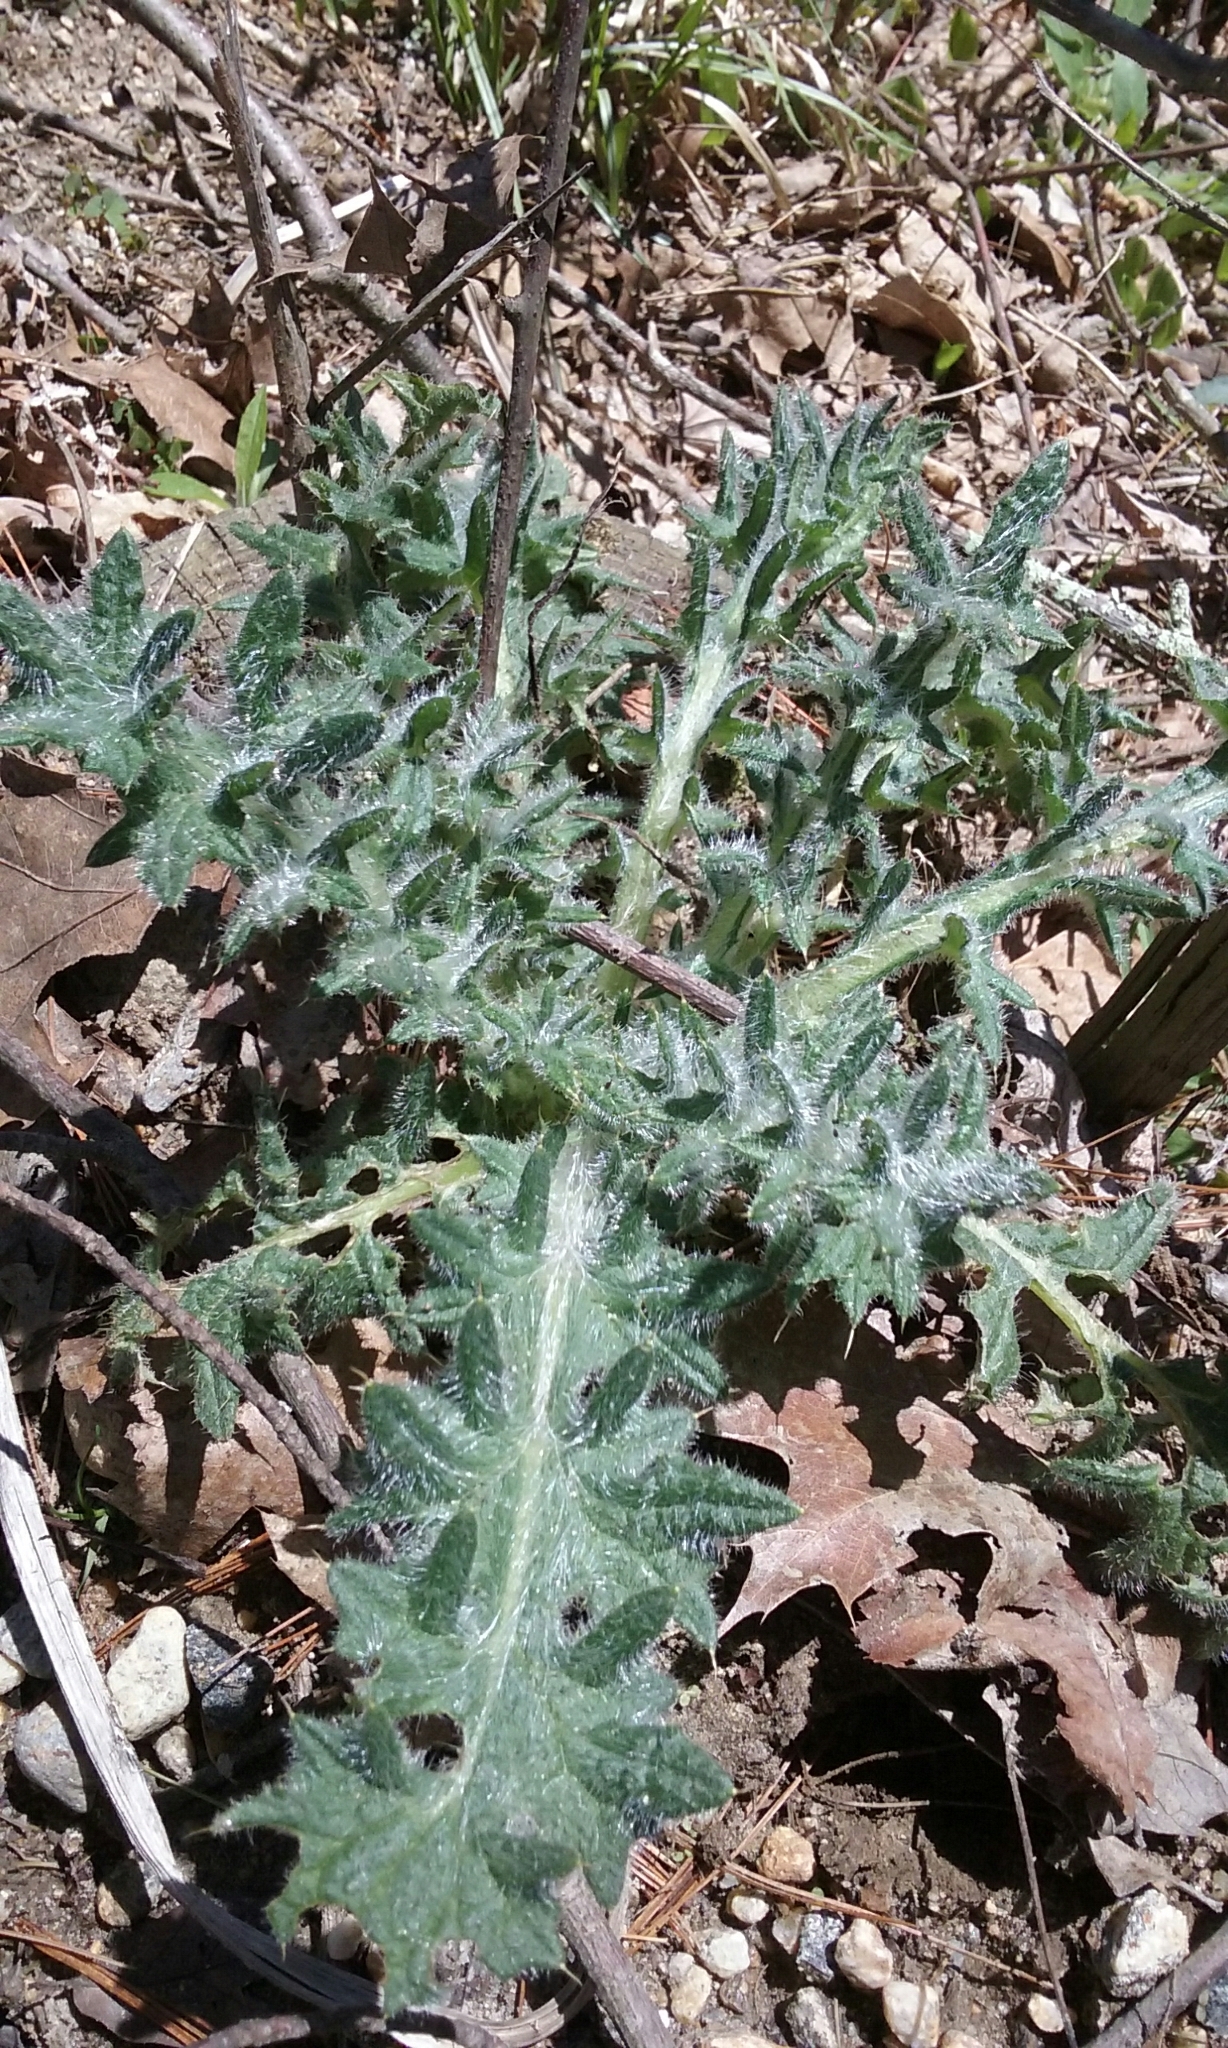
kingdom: Plantae
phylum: Tracheophyta
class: Magnoliopsida
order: Asterales
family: Asteraceae
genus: Cirsium
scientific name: Cirsium vulgare
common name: Bull thistle
